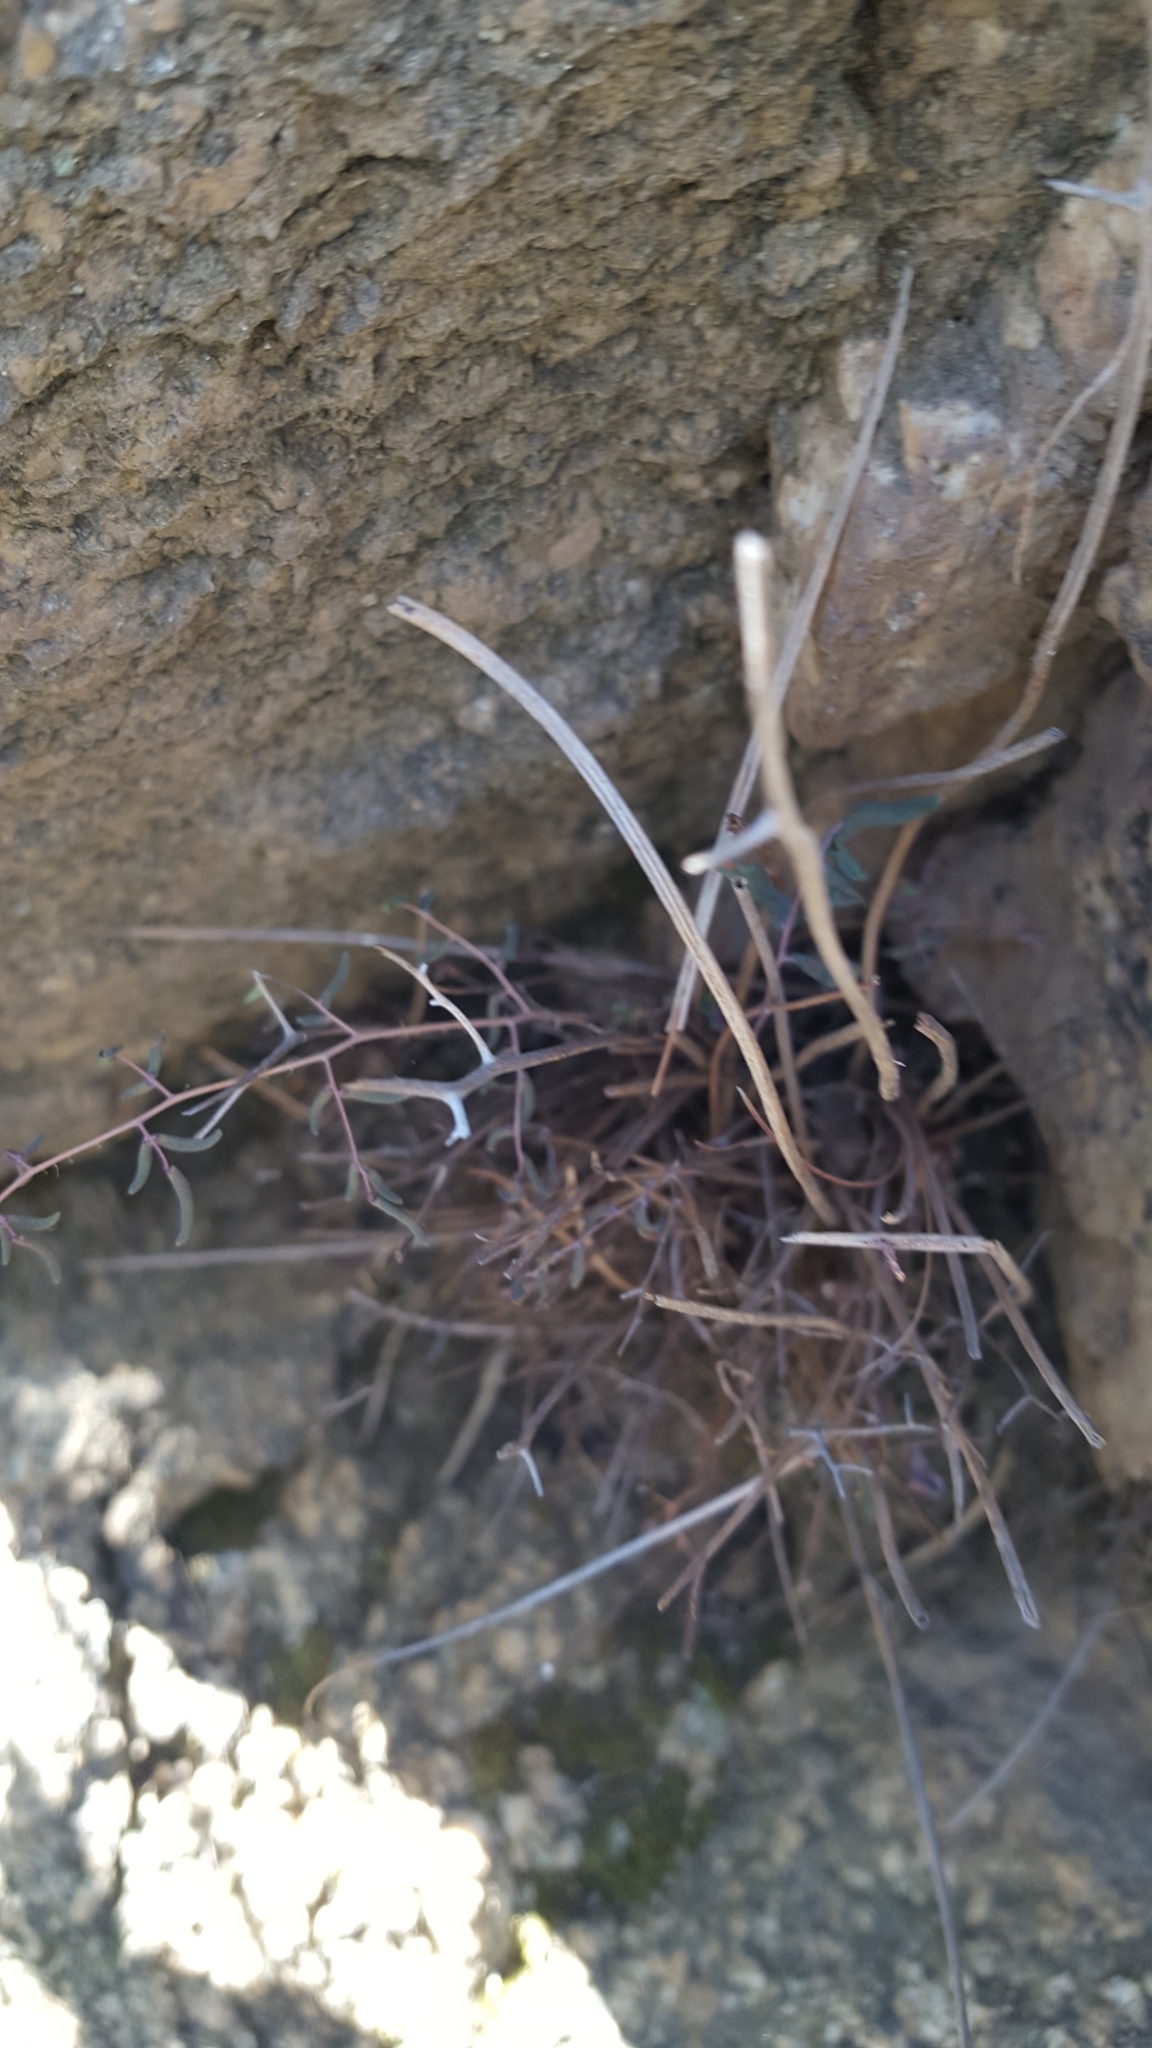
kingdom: Plantae
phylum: Tracheophyta
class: Polypodiopsida
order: Polypodiales
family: Pteridaceae
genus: Pellaea
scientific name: Pellaea mucronata
